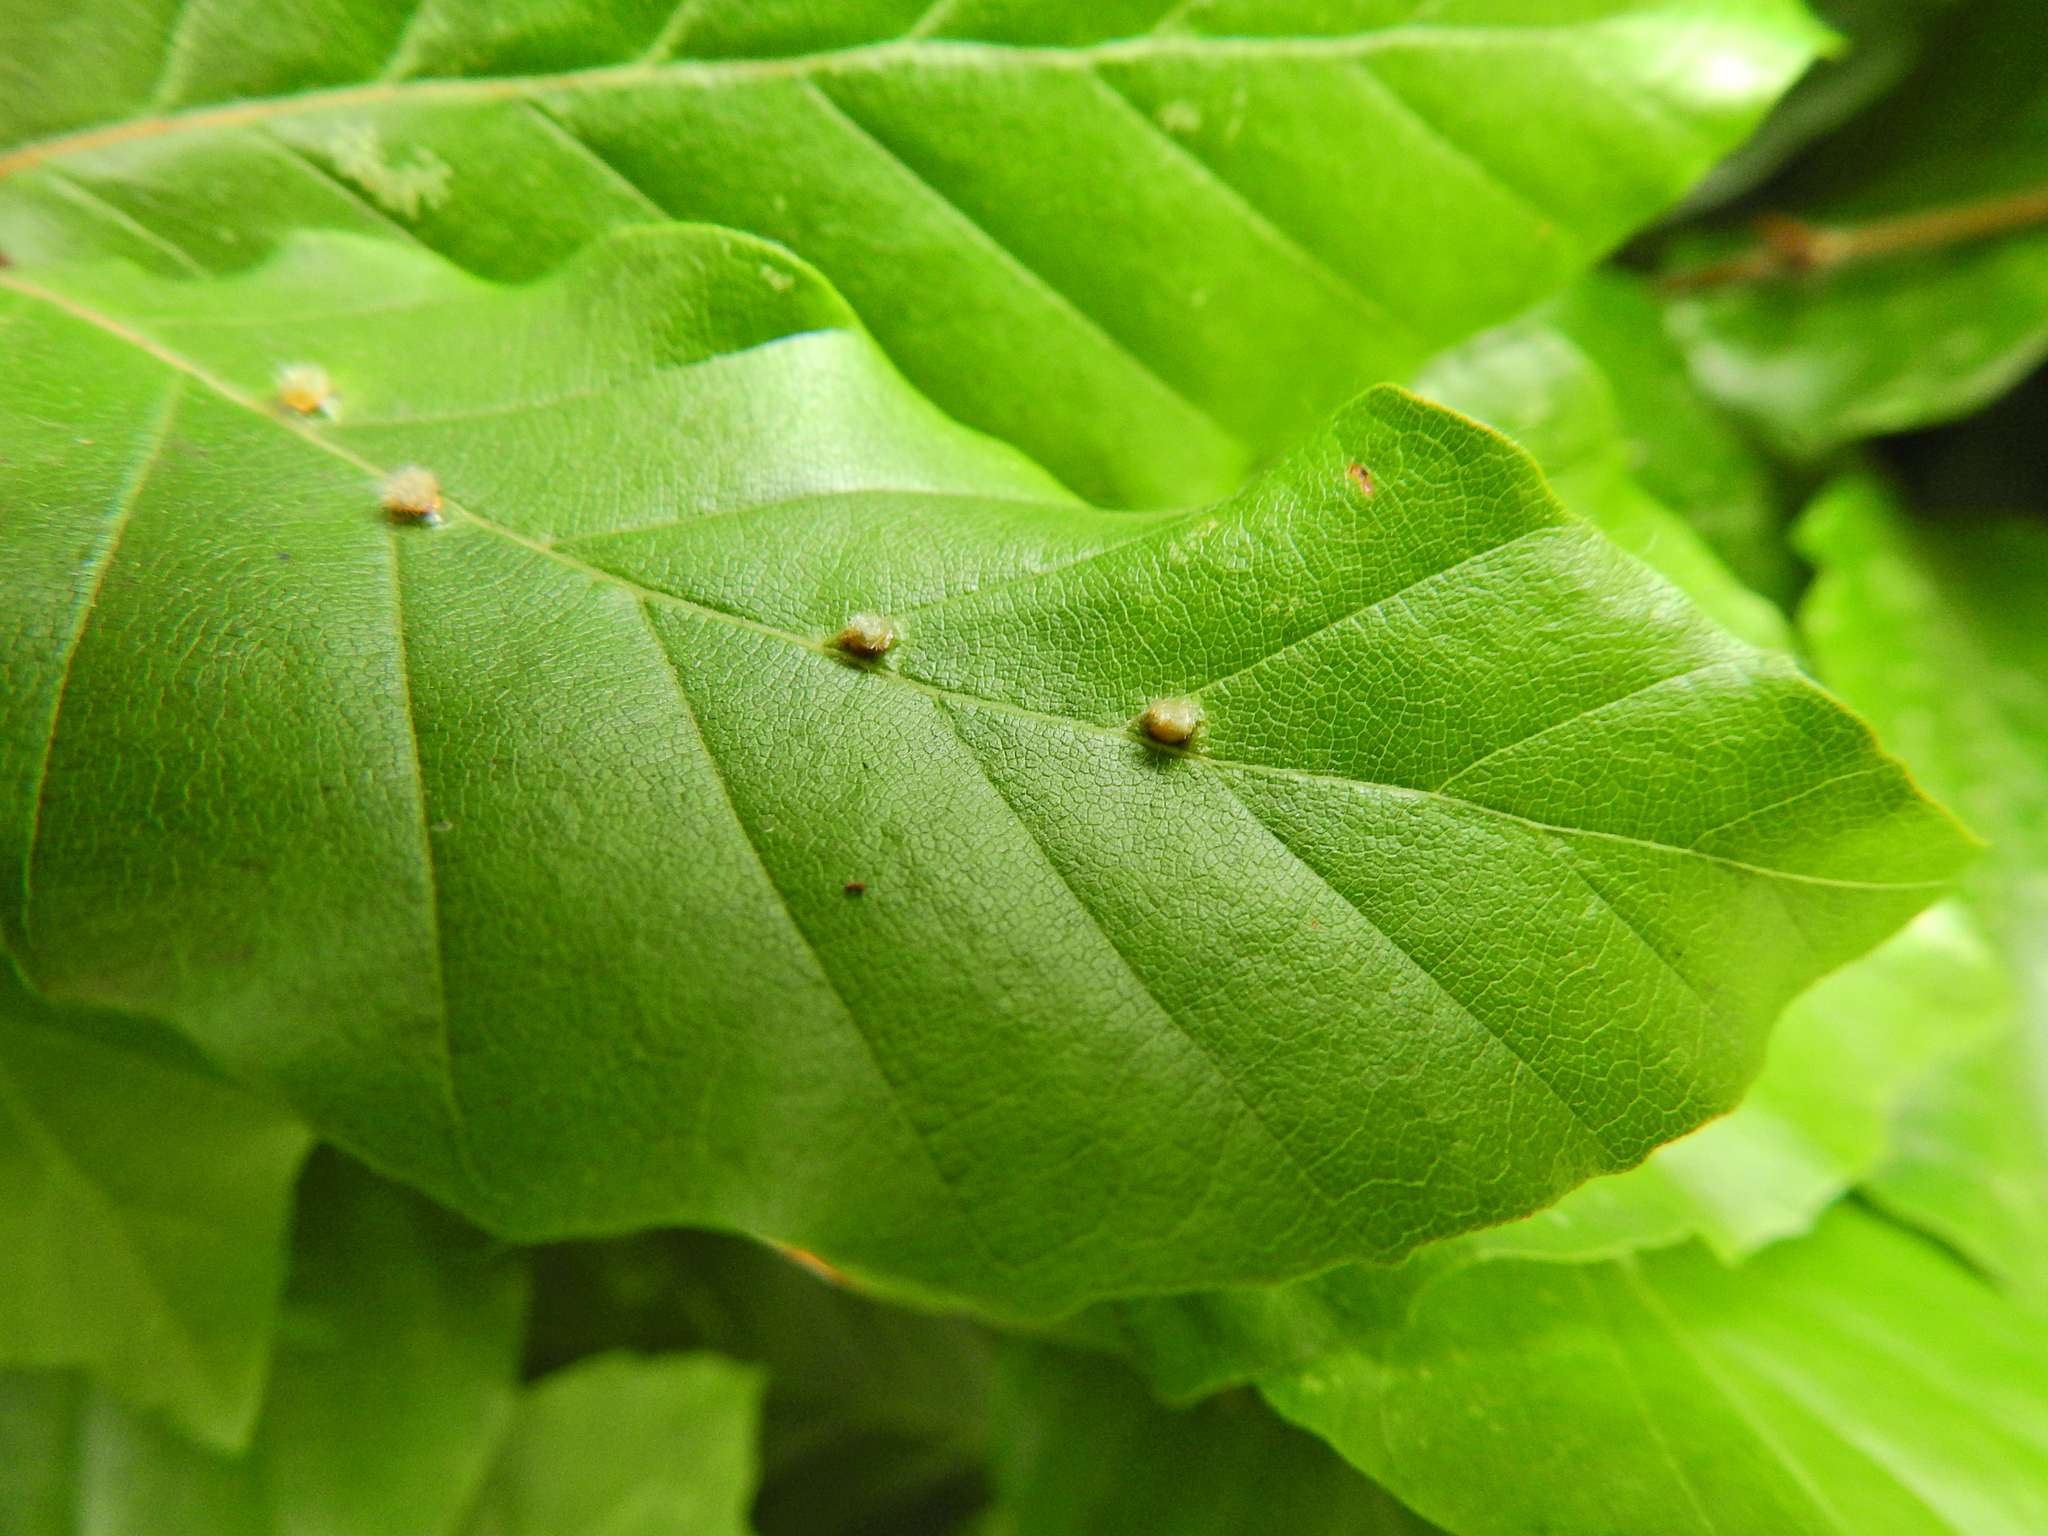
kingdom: Animalia
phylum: Arthropoda
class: Insecta
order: Diptera
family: Cecidomyiidae
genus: Hartigiola
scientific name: Hartigiola annulipes
